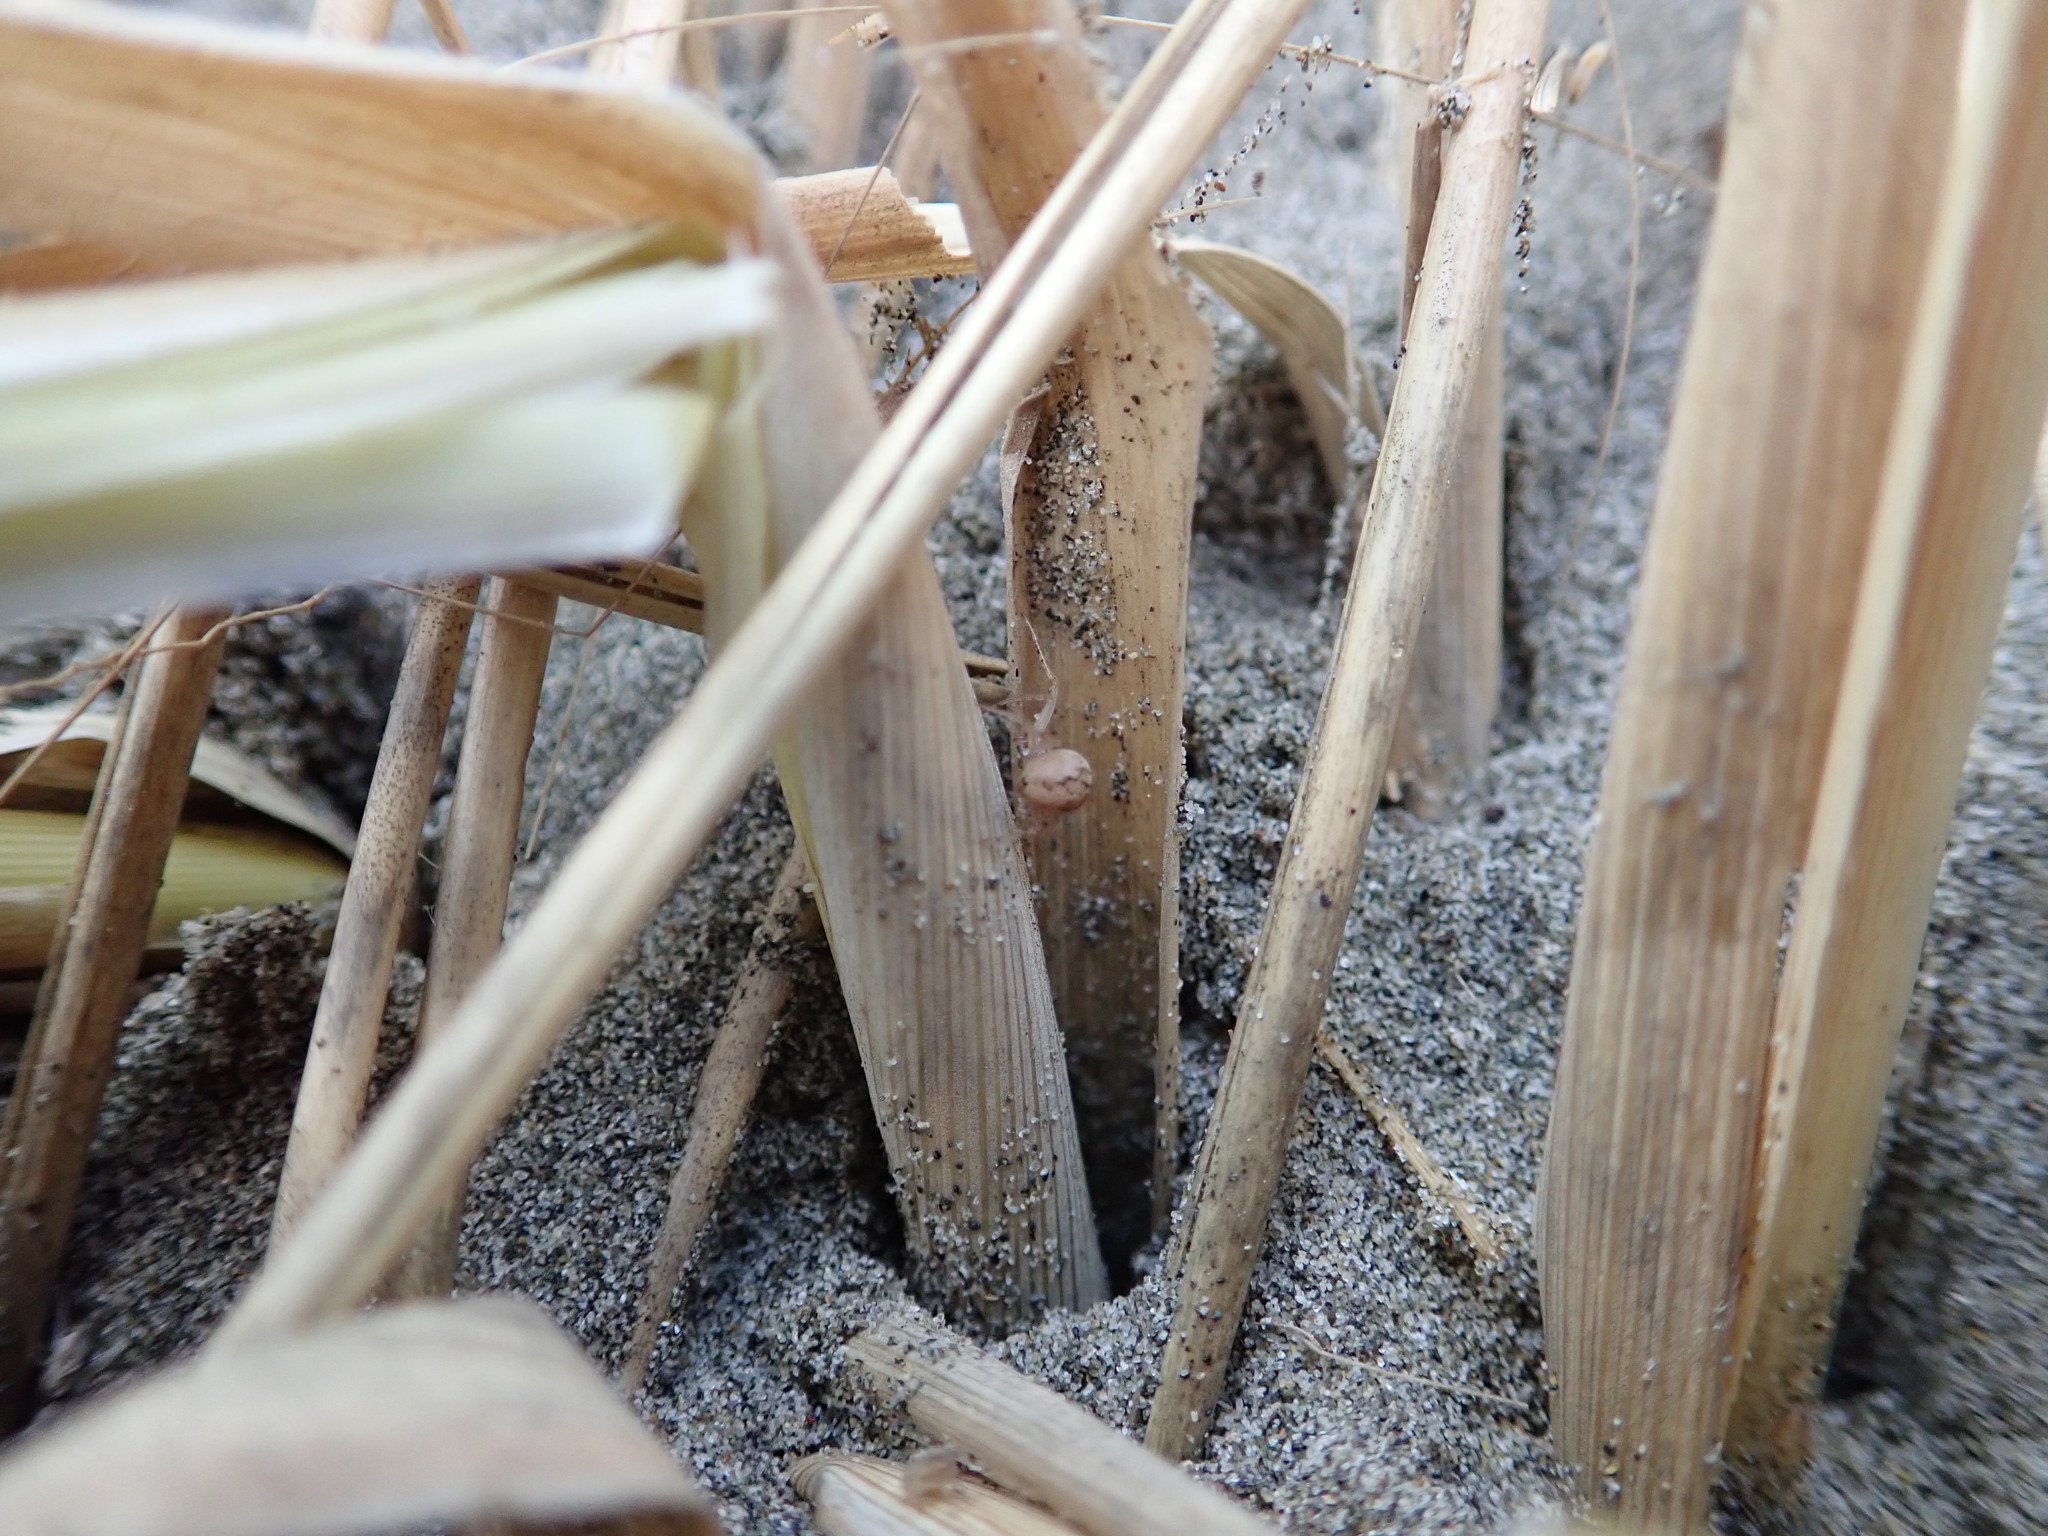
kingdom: Animalia
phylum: Arthropoda
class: Arachnida
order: Araneae
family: Theridiidae
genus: Cryptachaea
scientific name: Cryptachaea veruculata
